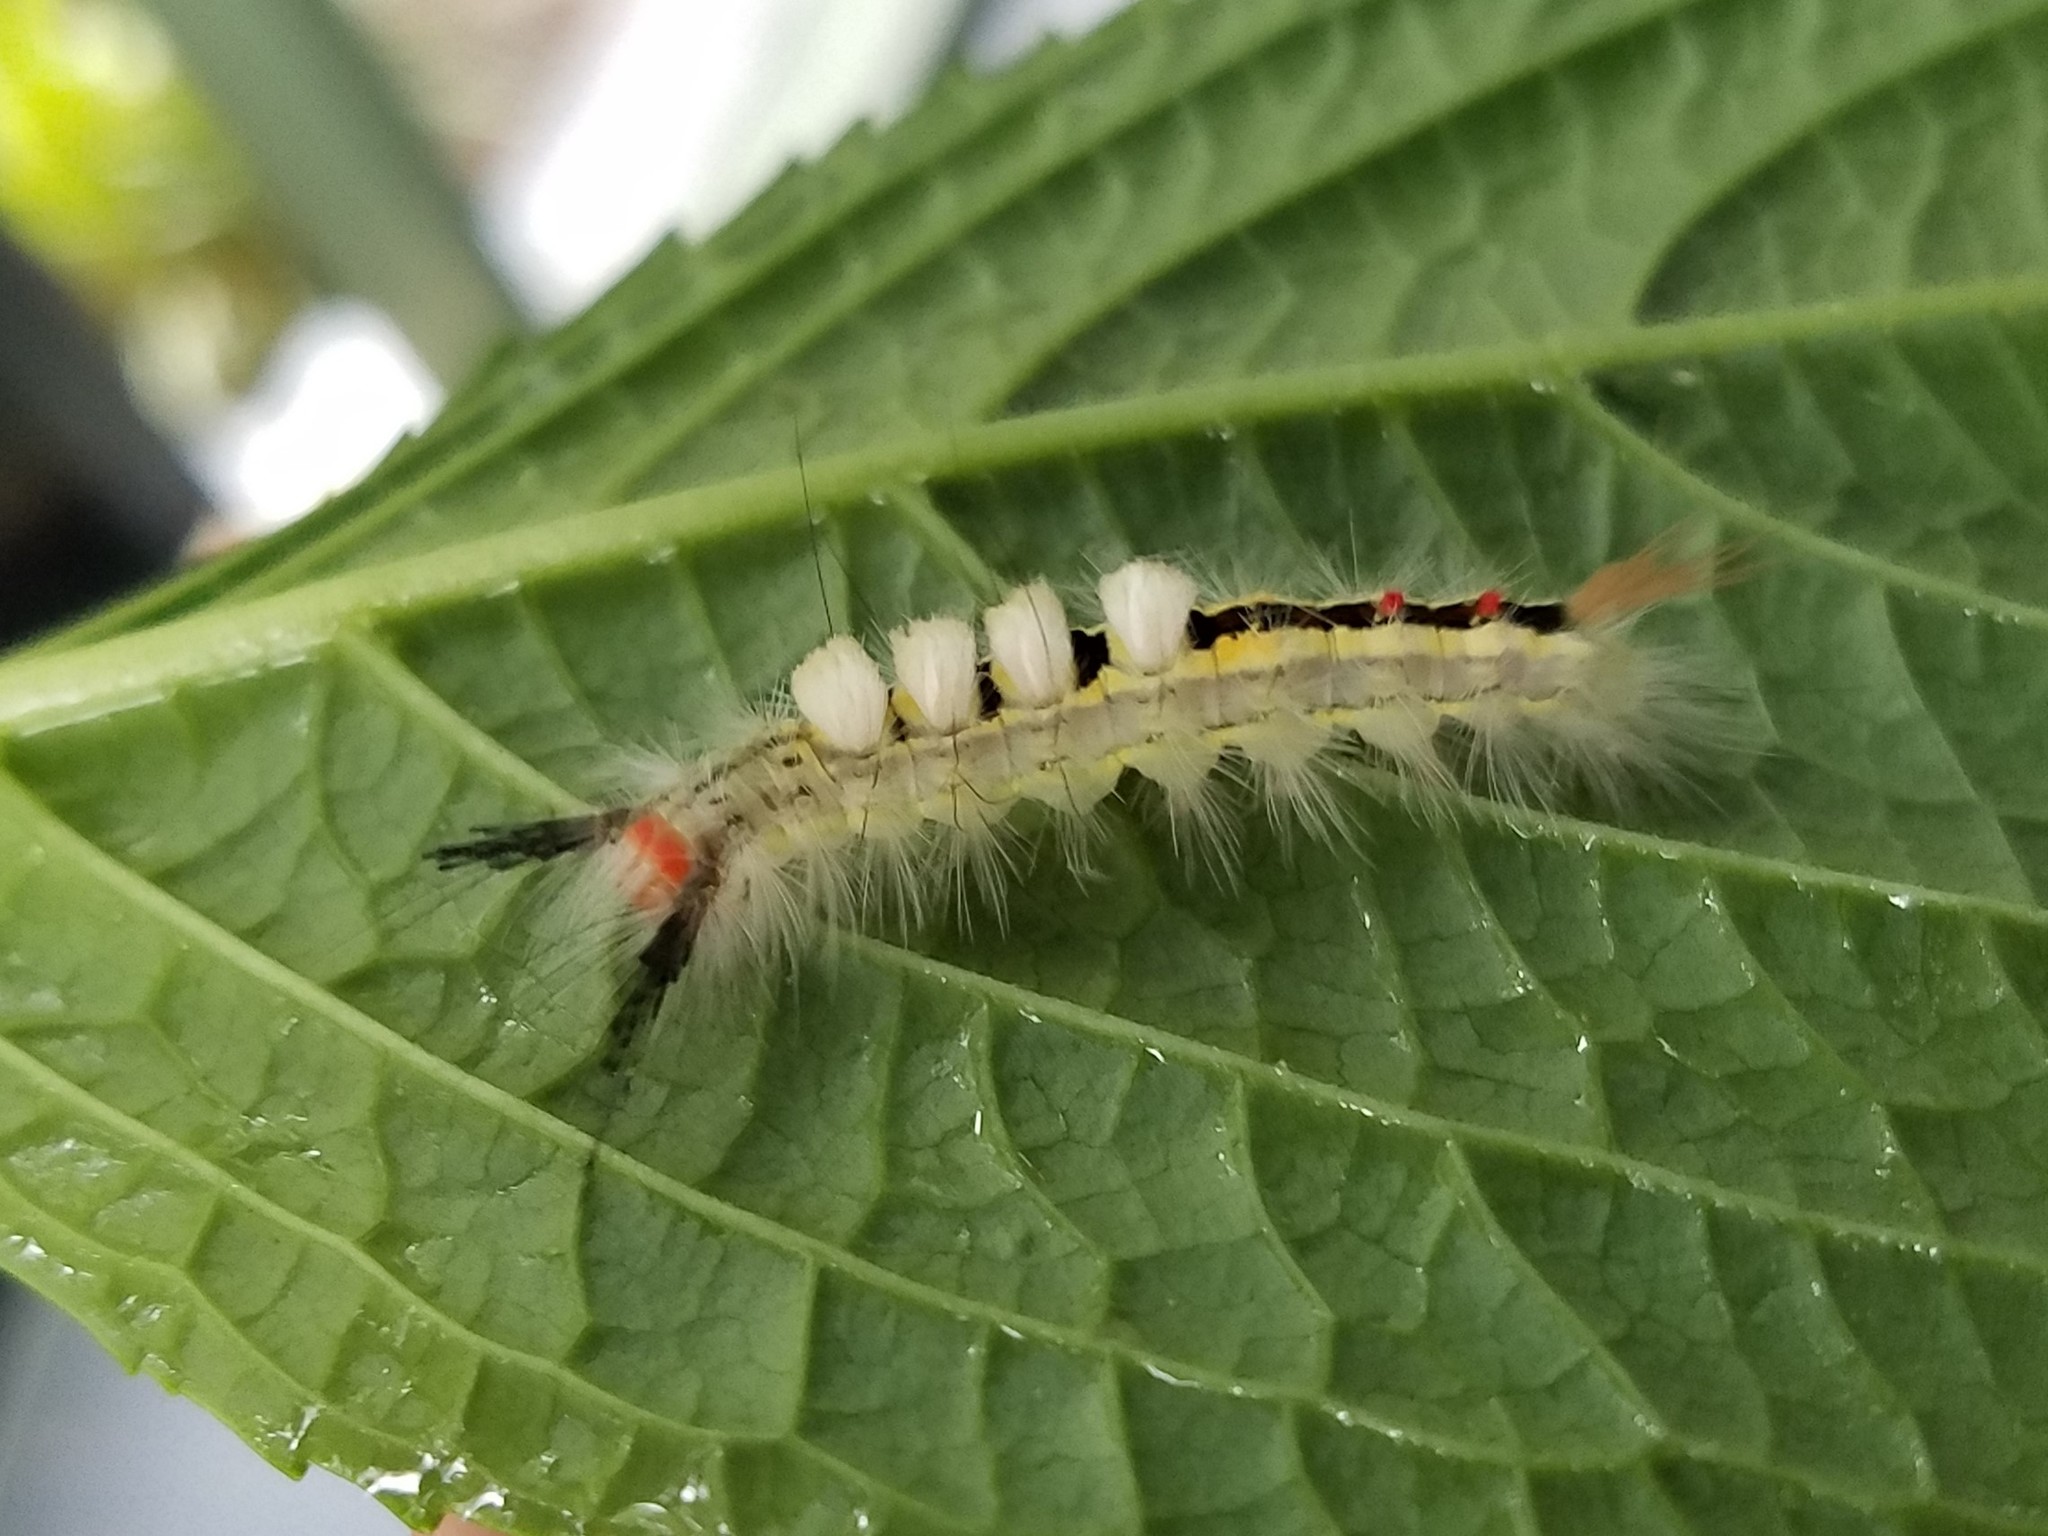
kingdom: Animalia
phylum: Arthropoda
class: Insecta
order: Lepidoptera
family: Erebidae
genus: Orgyia
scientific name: Orgyia leucostigma
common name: White-marked tussock moth
